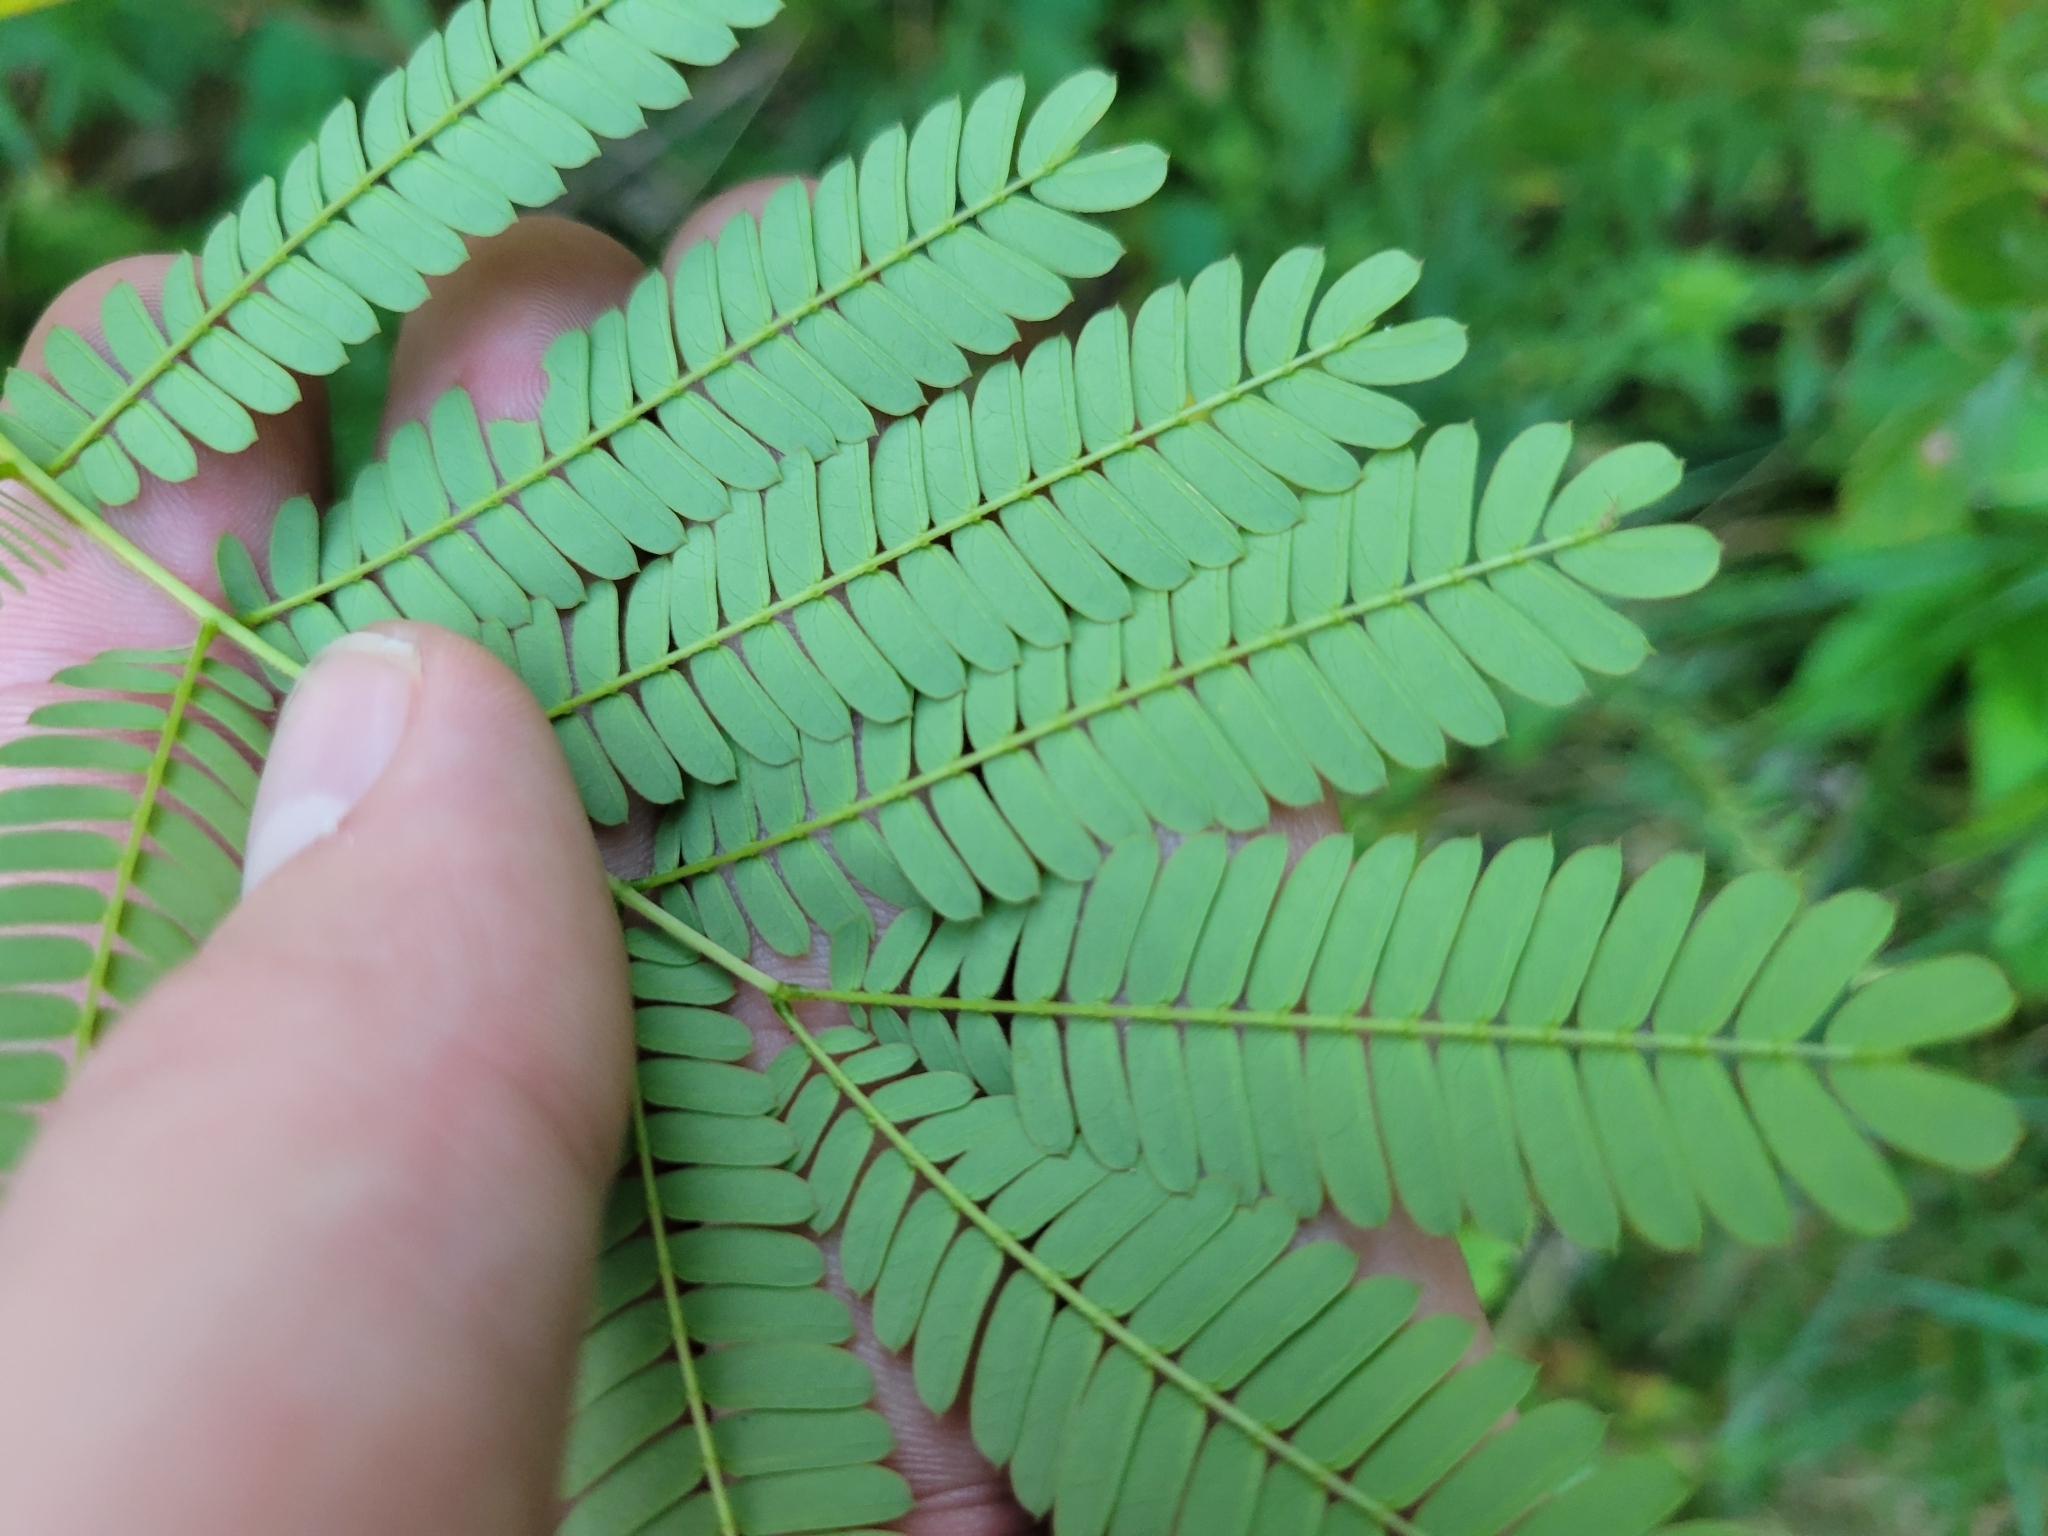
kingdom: Plantae
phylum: Tracheophyta
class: Magnoliopsida
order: Fabales
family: Fabaceae
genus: Albizia
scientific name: Albizia julibrissin
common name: Silktree
